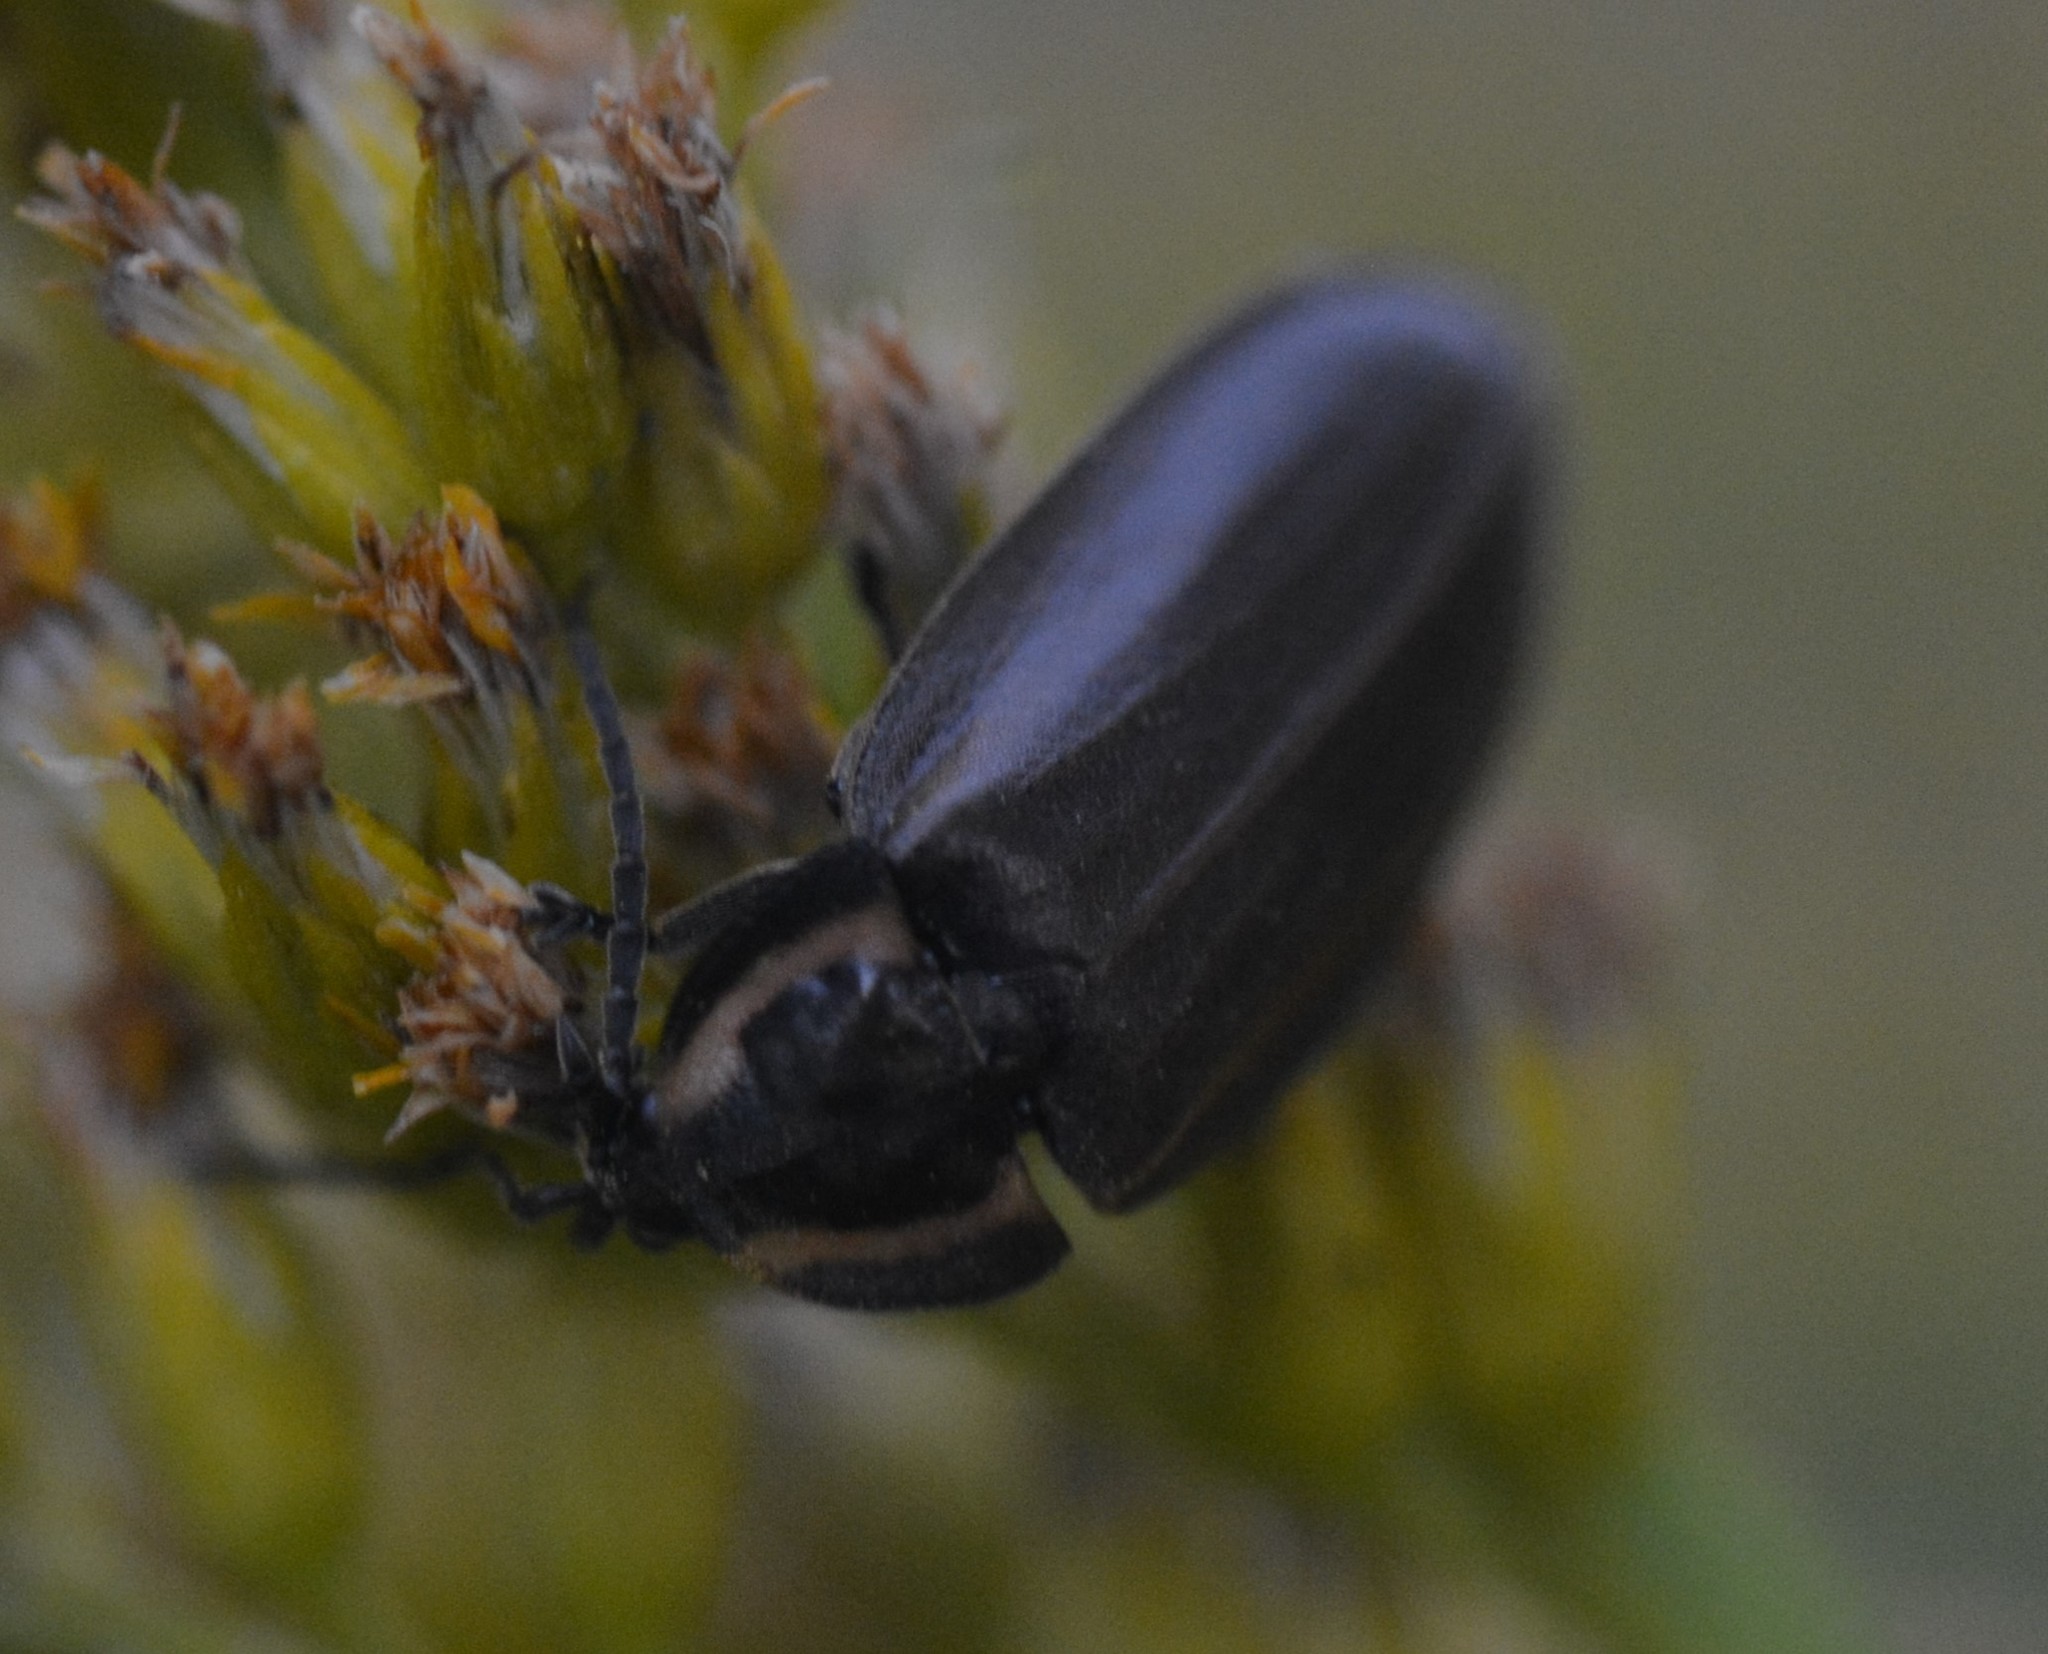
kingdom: Animalia
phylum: Arthropoda
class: Insecta
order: Coleoptera
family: Lampyridae
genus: Photinus
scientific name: Photinus corrusca
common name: Winter firefly
